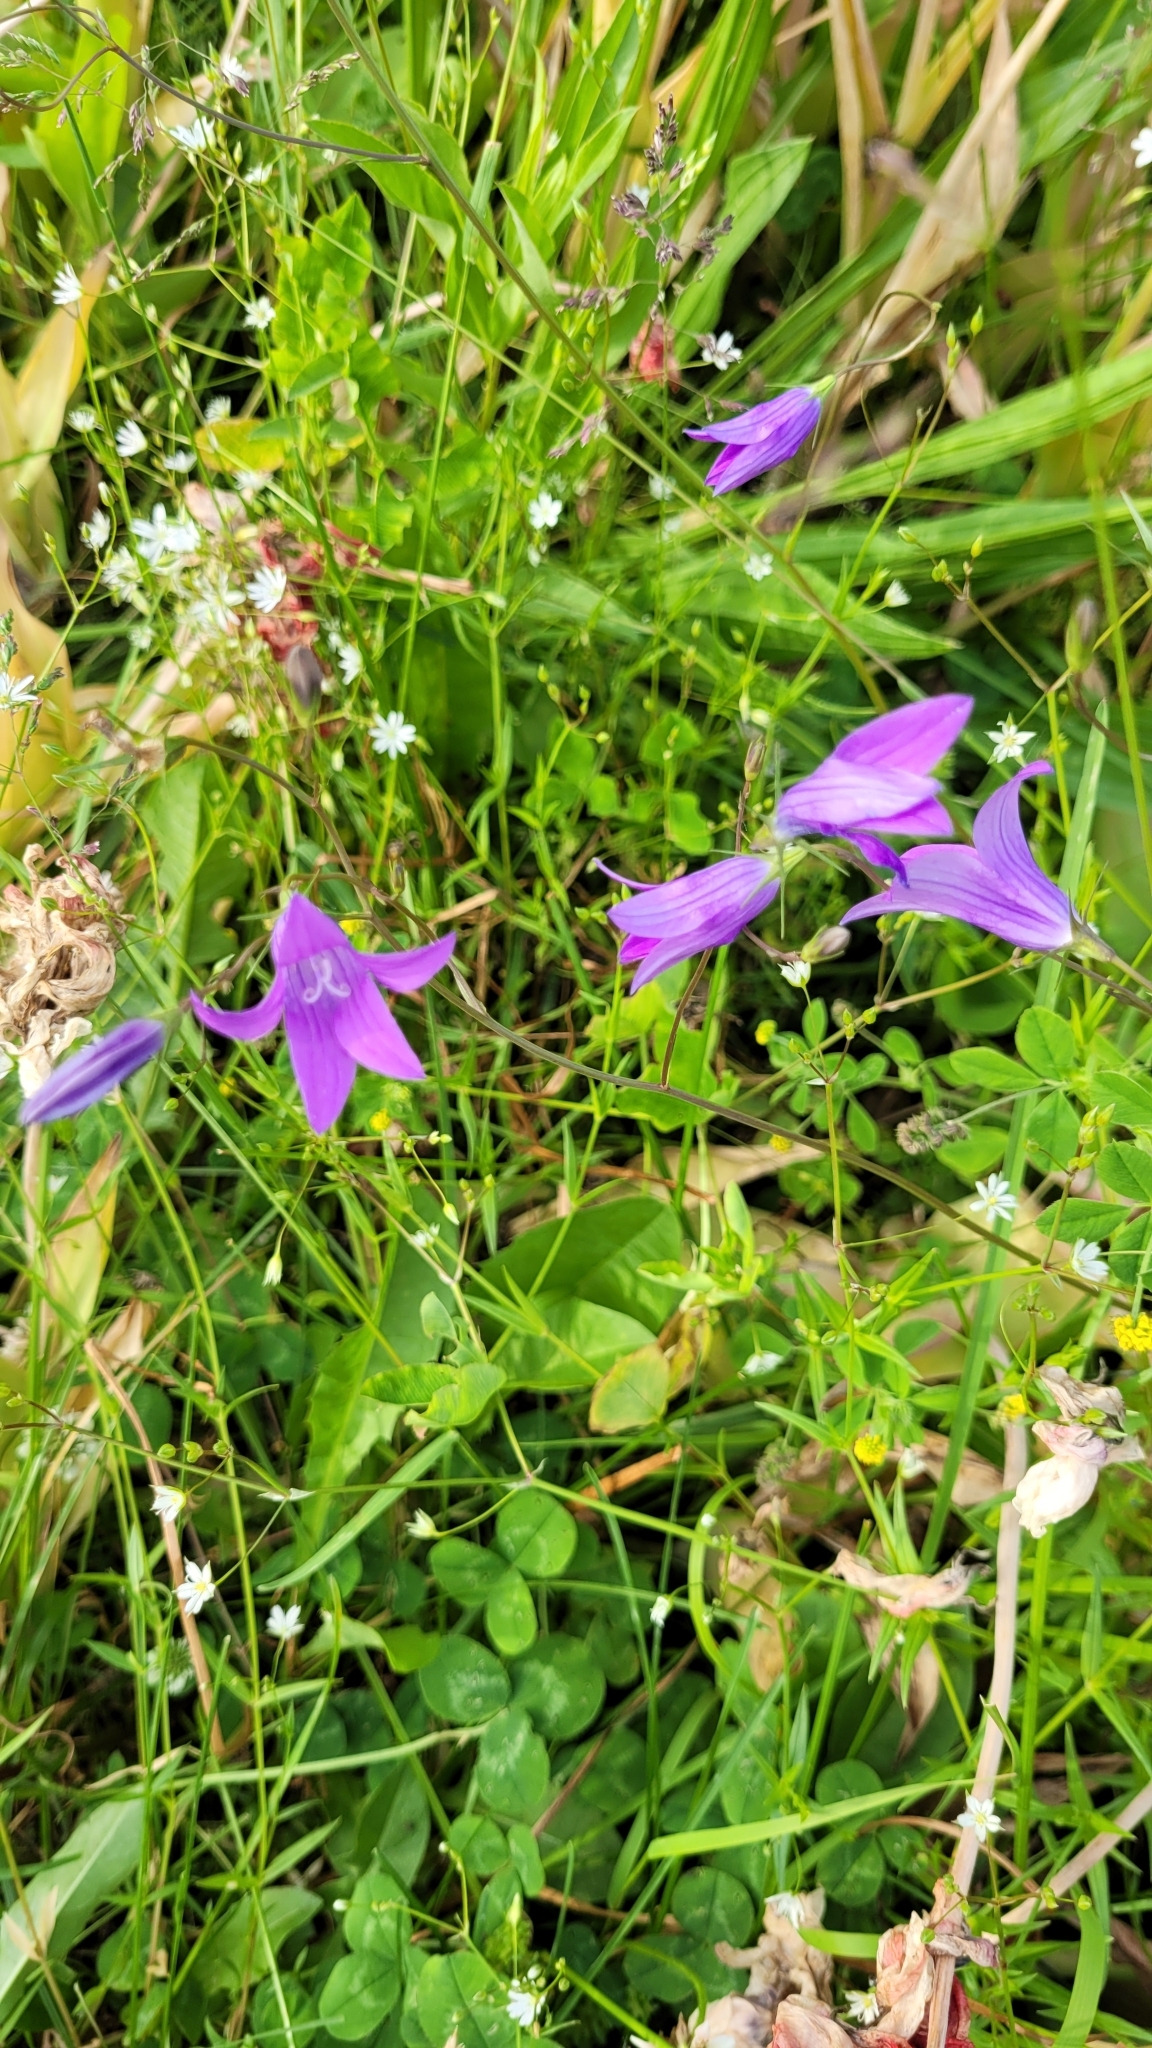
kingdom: Plantae
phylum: Tracheophyta
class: Magnoliopsida
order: Asterales
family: Campanulaceae
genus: Campanula
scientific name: Campanula patula
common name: Spreading bellflower
